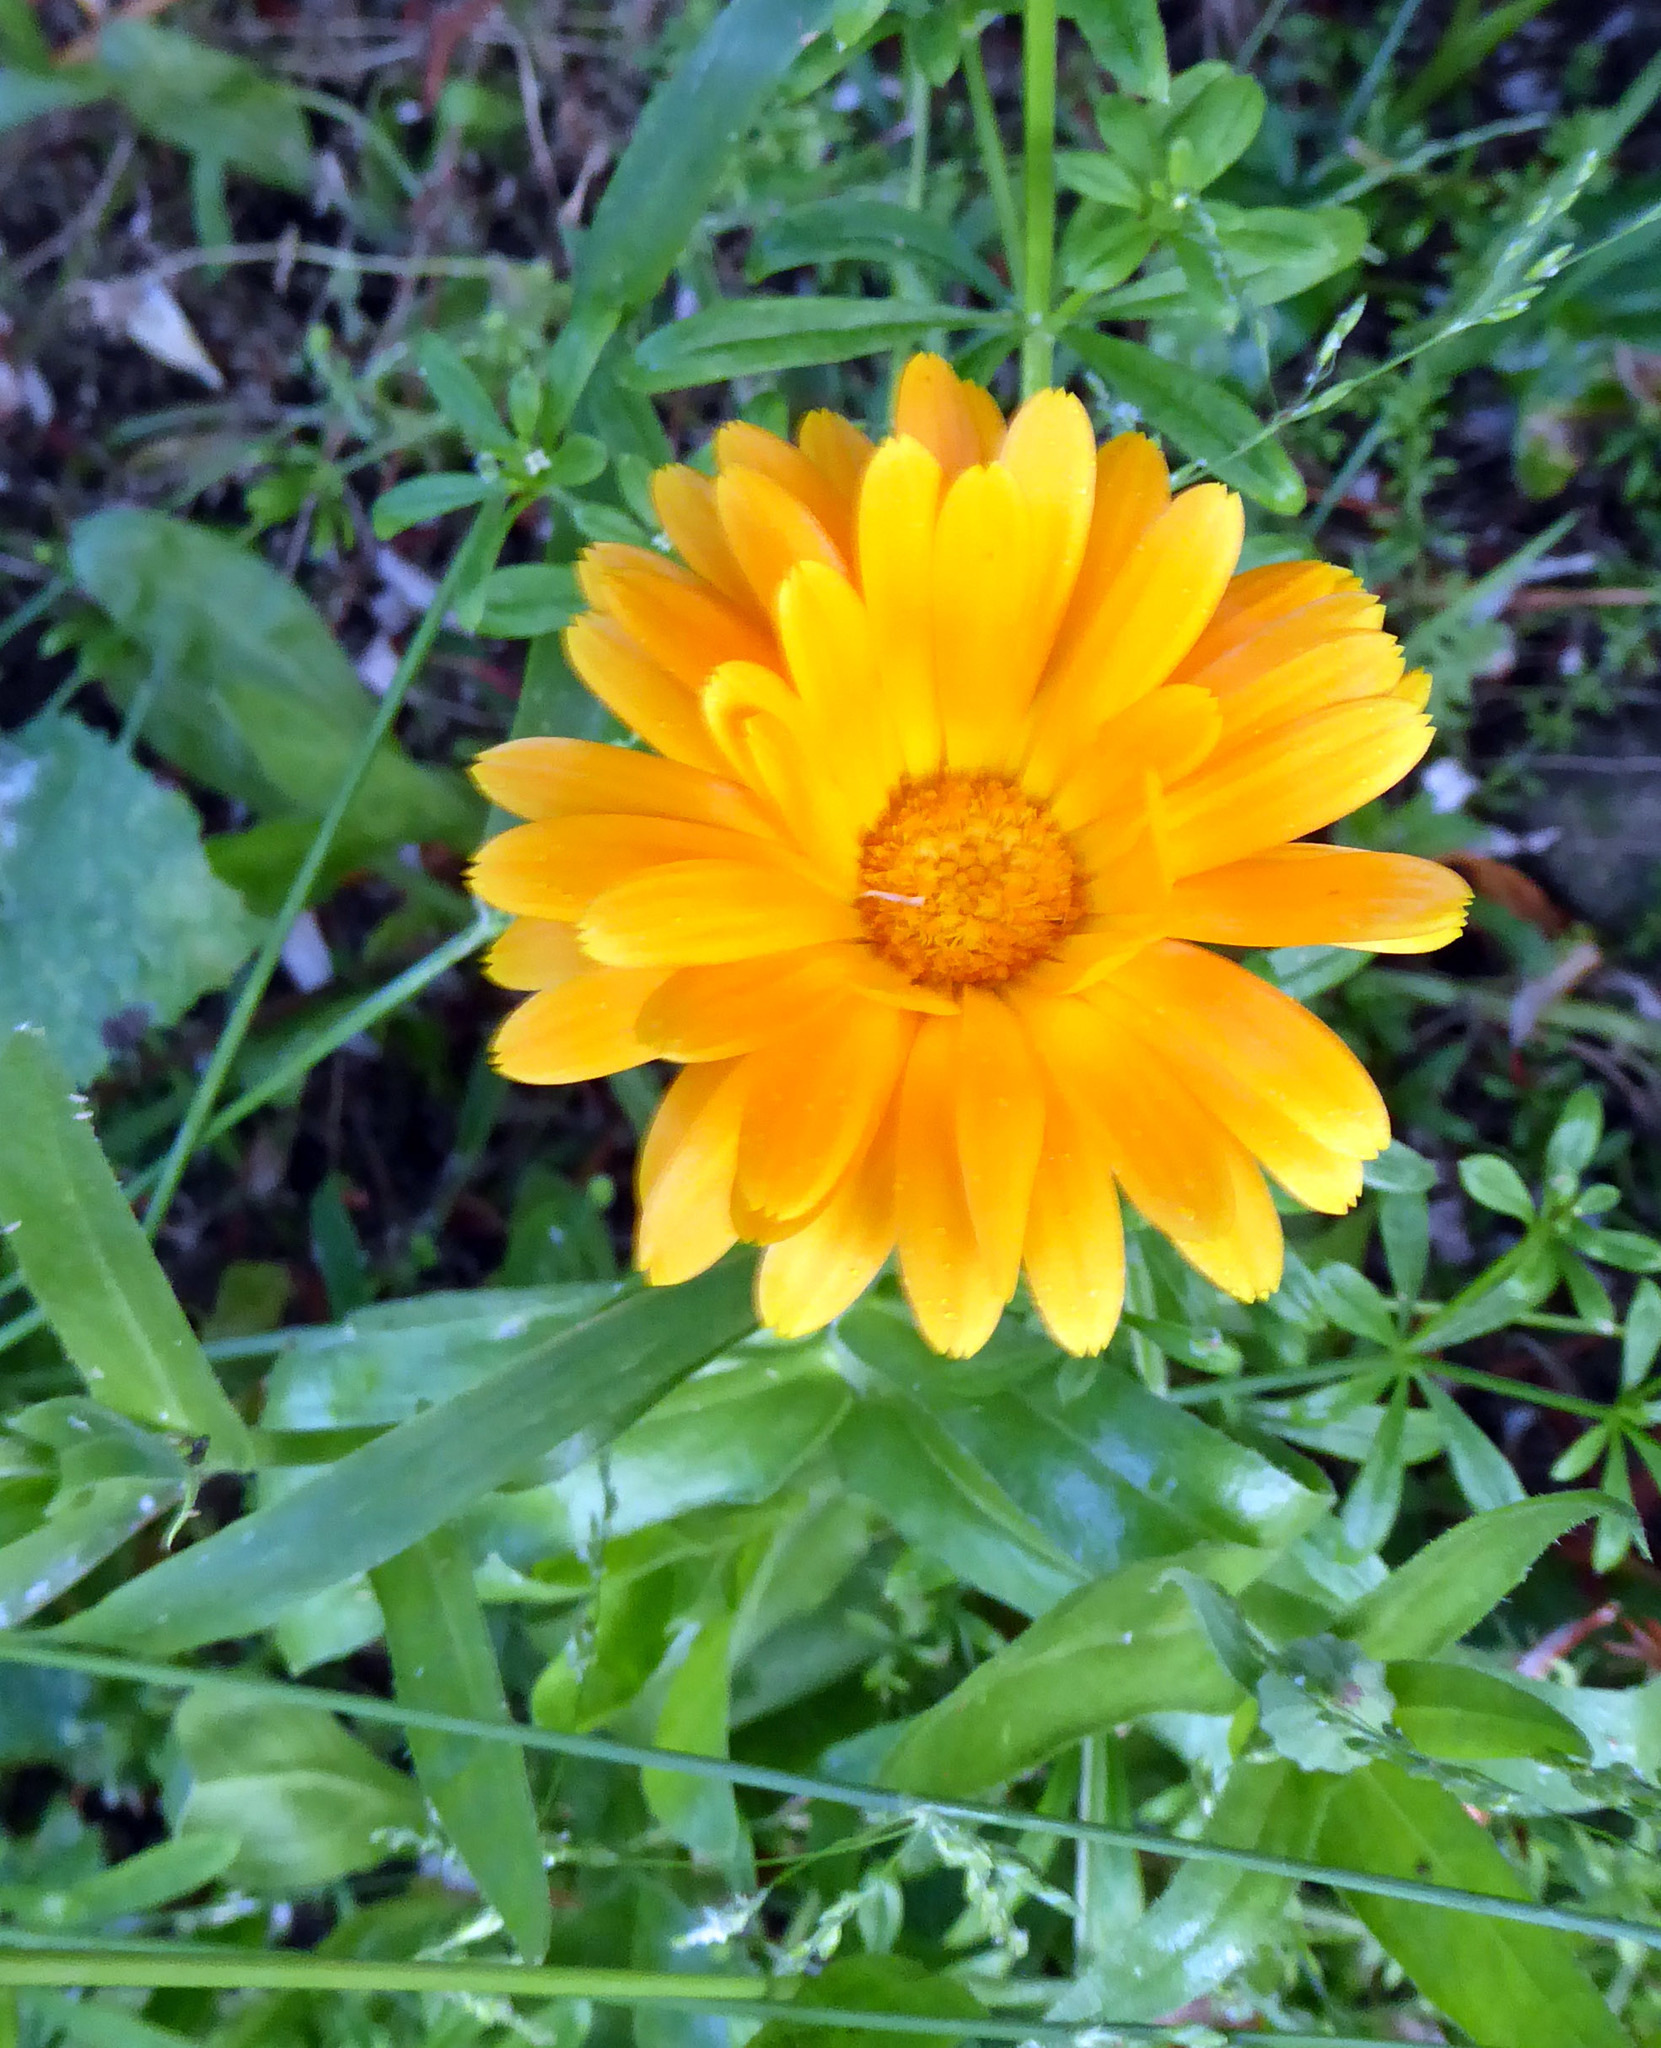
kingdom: Plantae
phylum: Tracheophyta
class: Magnoliopsida
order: Asterales
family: Asteraceae
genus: Calendula
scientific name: Calendula officinalis
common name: Pot marigold
